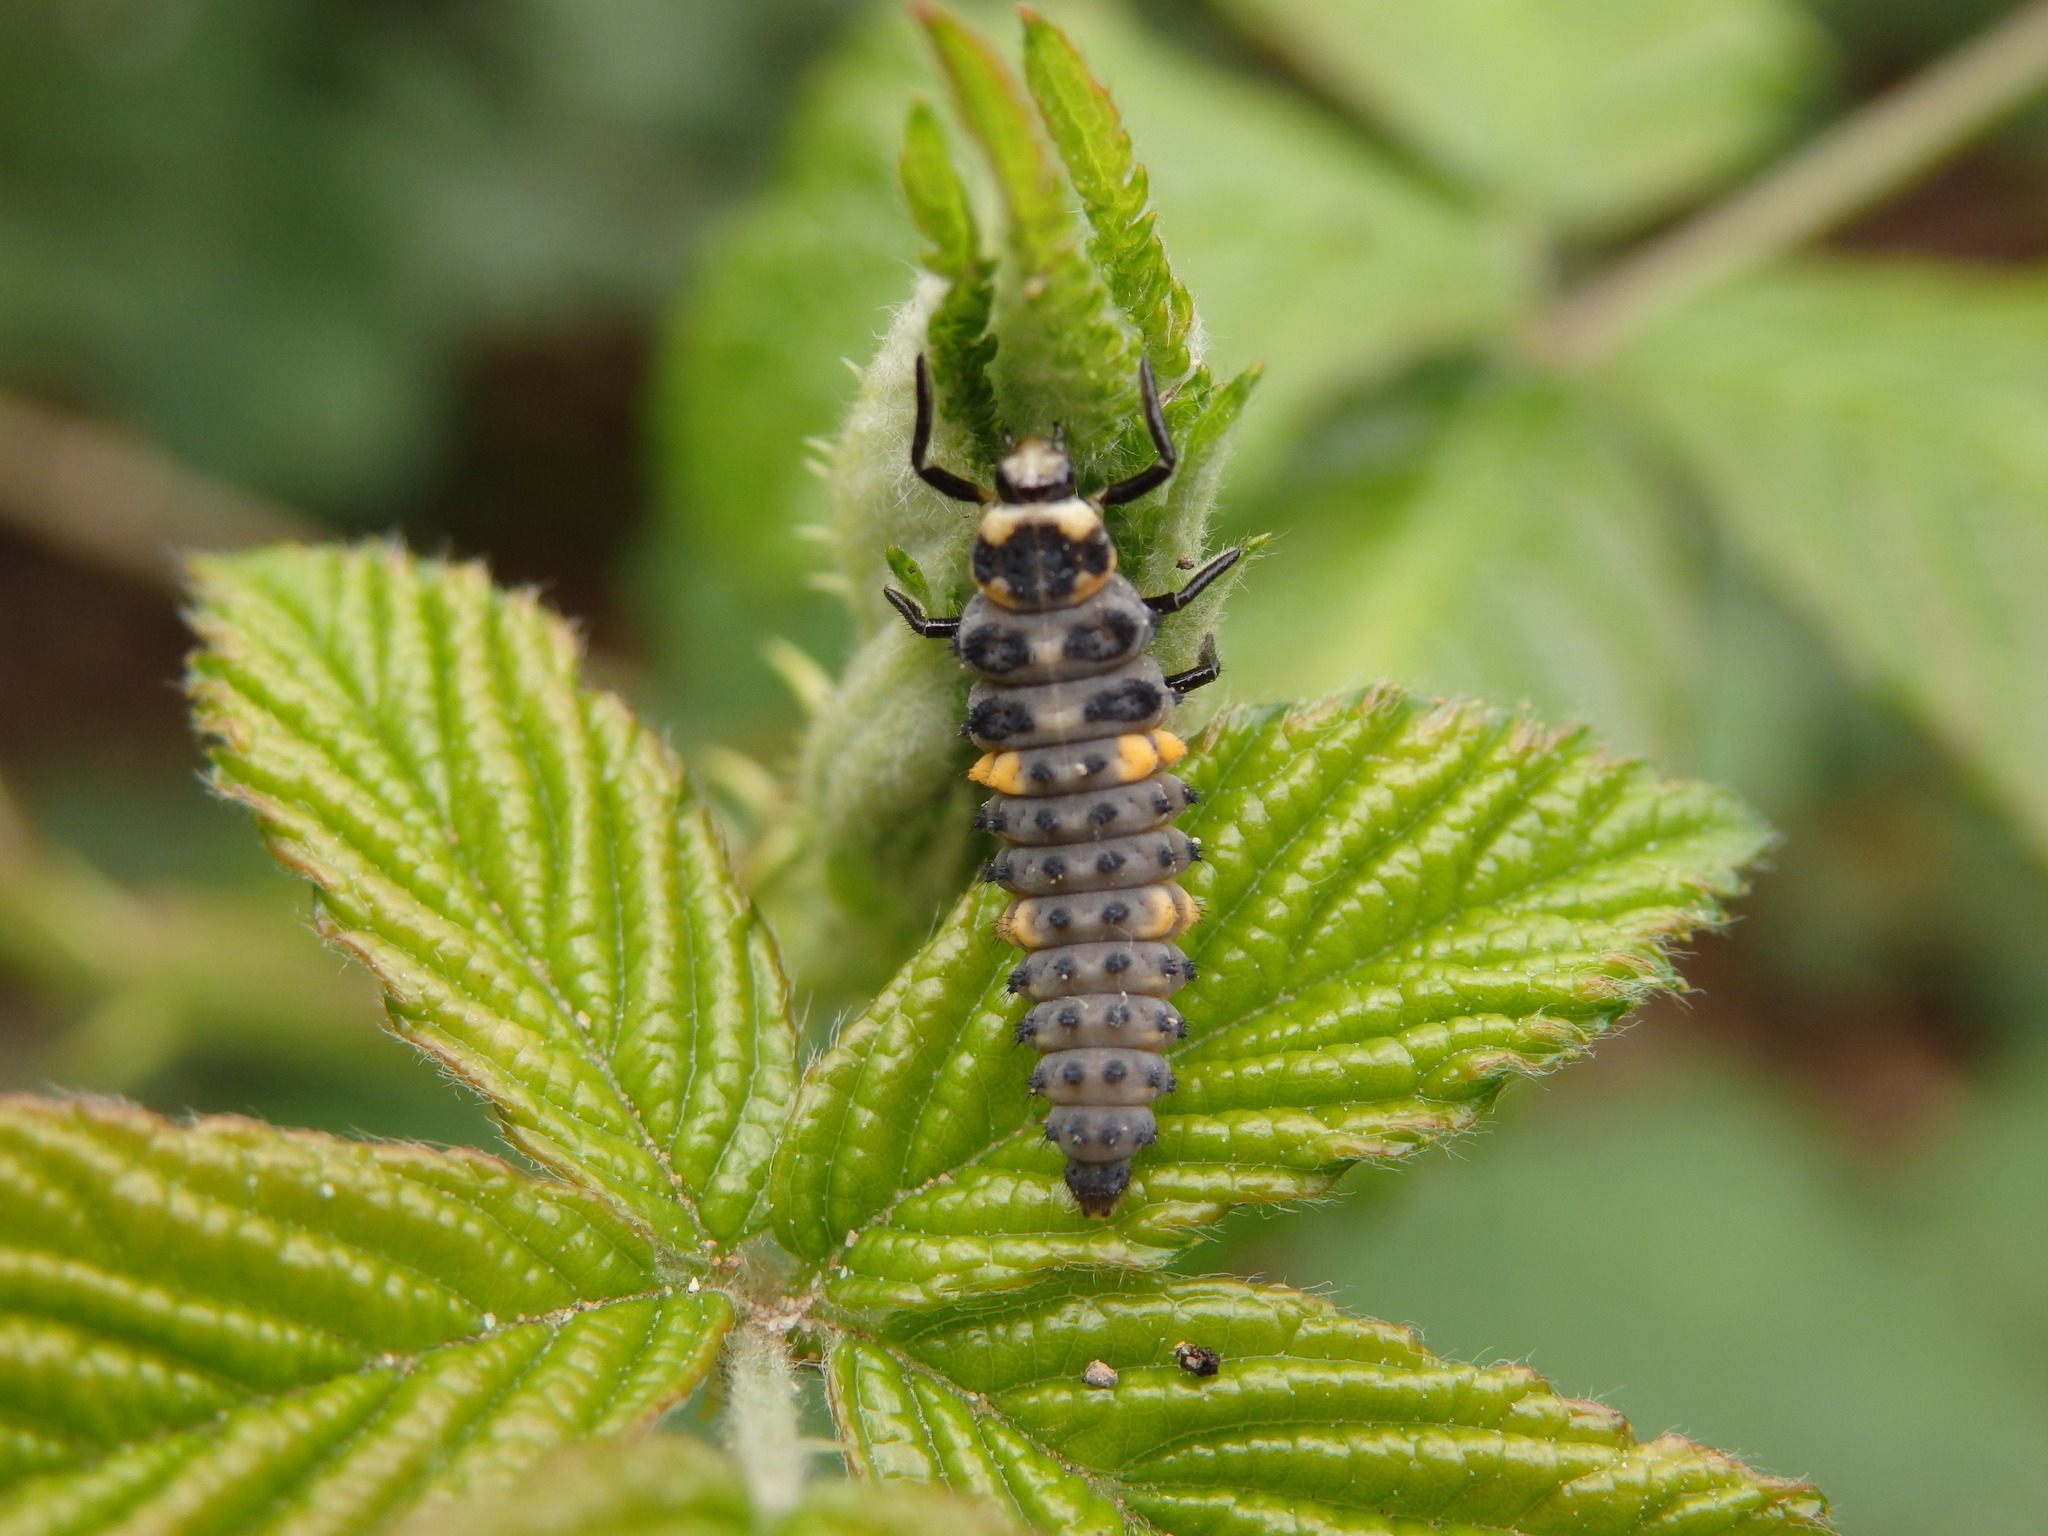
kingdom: Animalia
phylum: Arthropoda
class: Insecta
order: Coleoptera
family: Coccinellidae
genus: Coccinella
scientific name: Coccinella septempunctata
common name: Sevenspotted lady beetle
